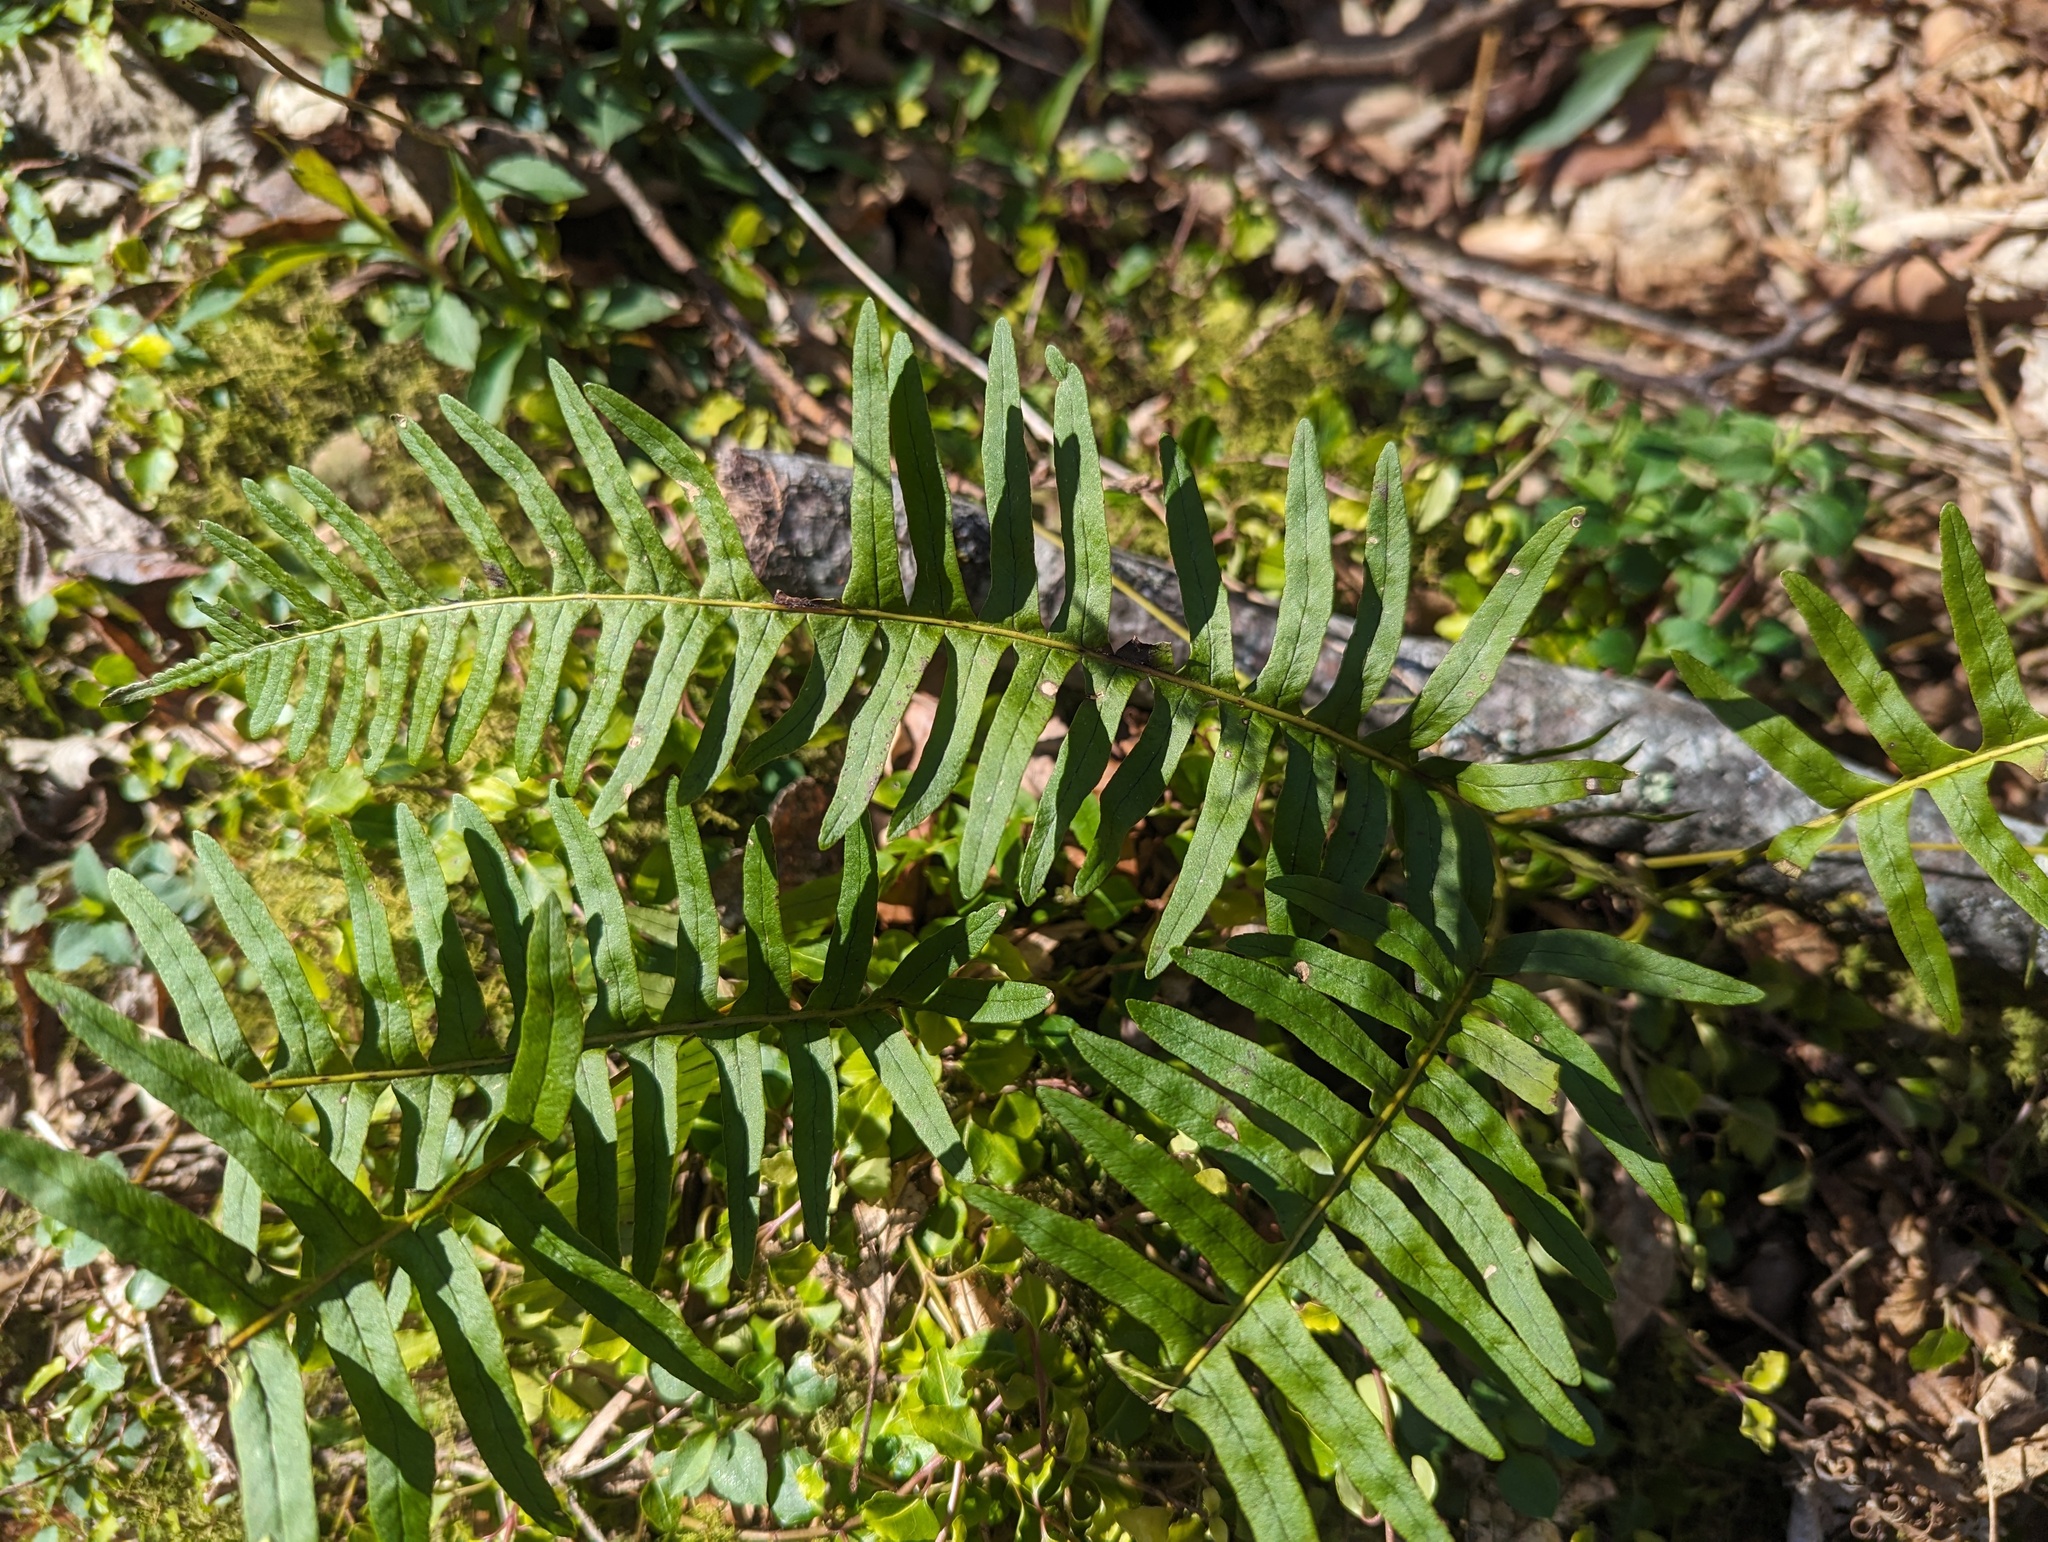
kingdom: Plantae
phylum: Tracheophyta
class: Polypodiopsida
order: Polypodiales
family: Polypodiaceae
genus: Polypodium
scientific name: Polypodium appalachianum
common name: Appalachian polypody
